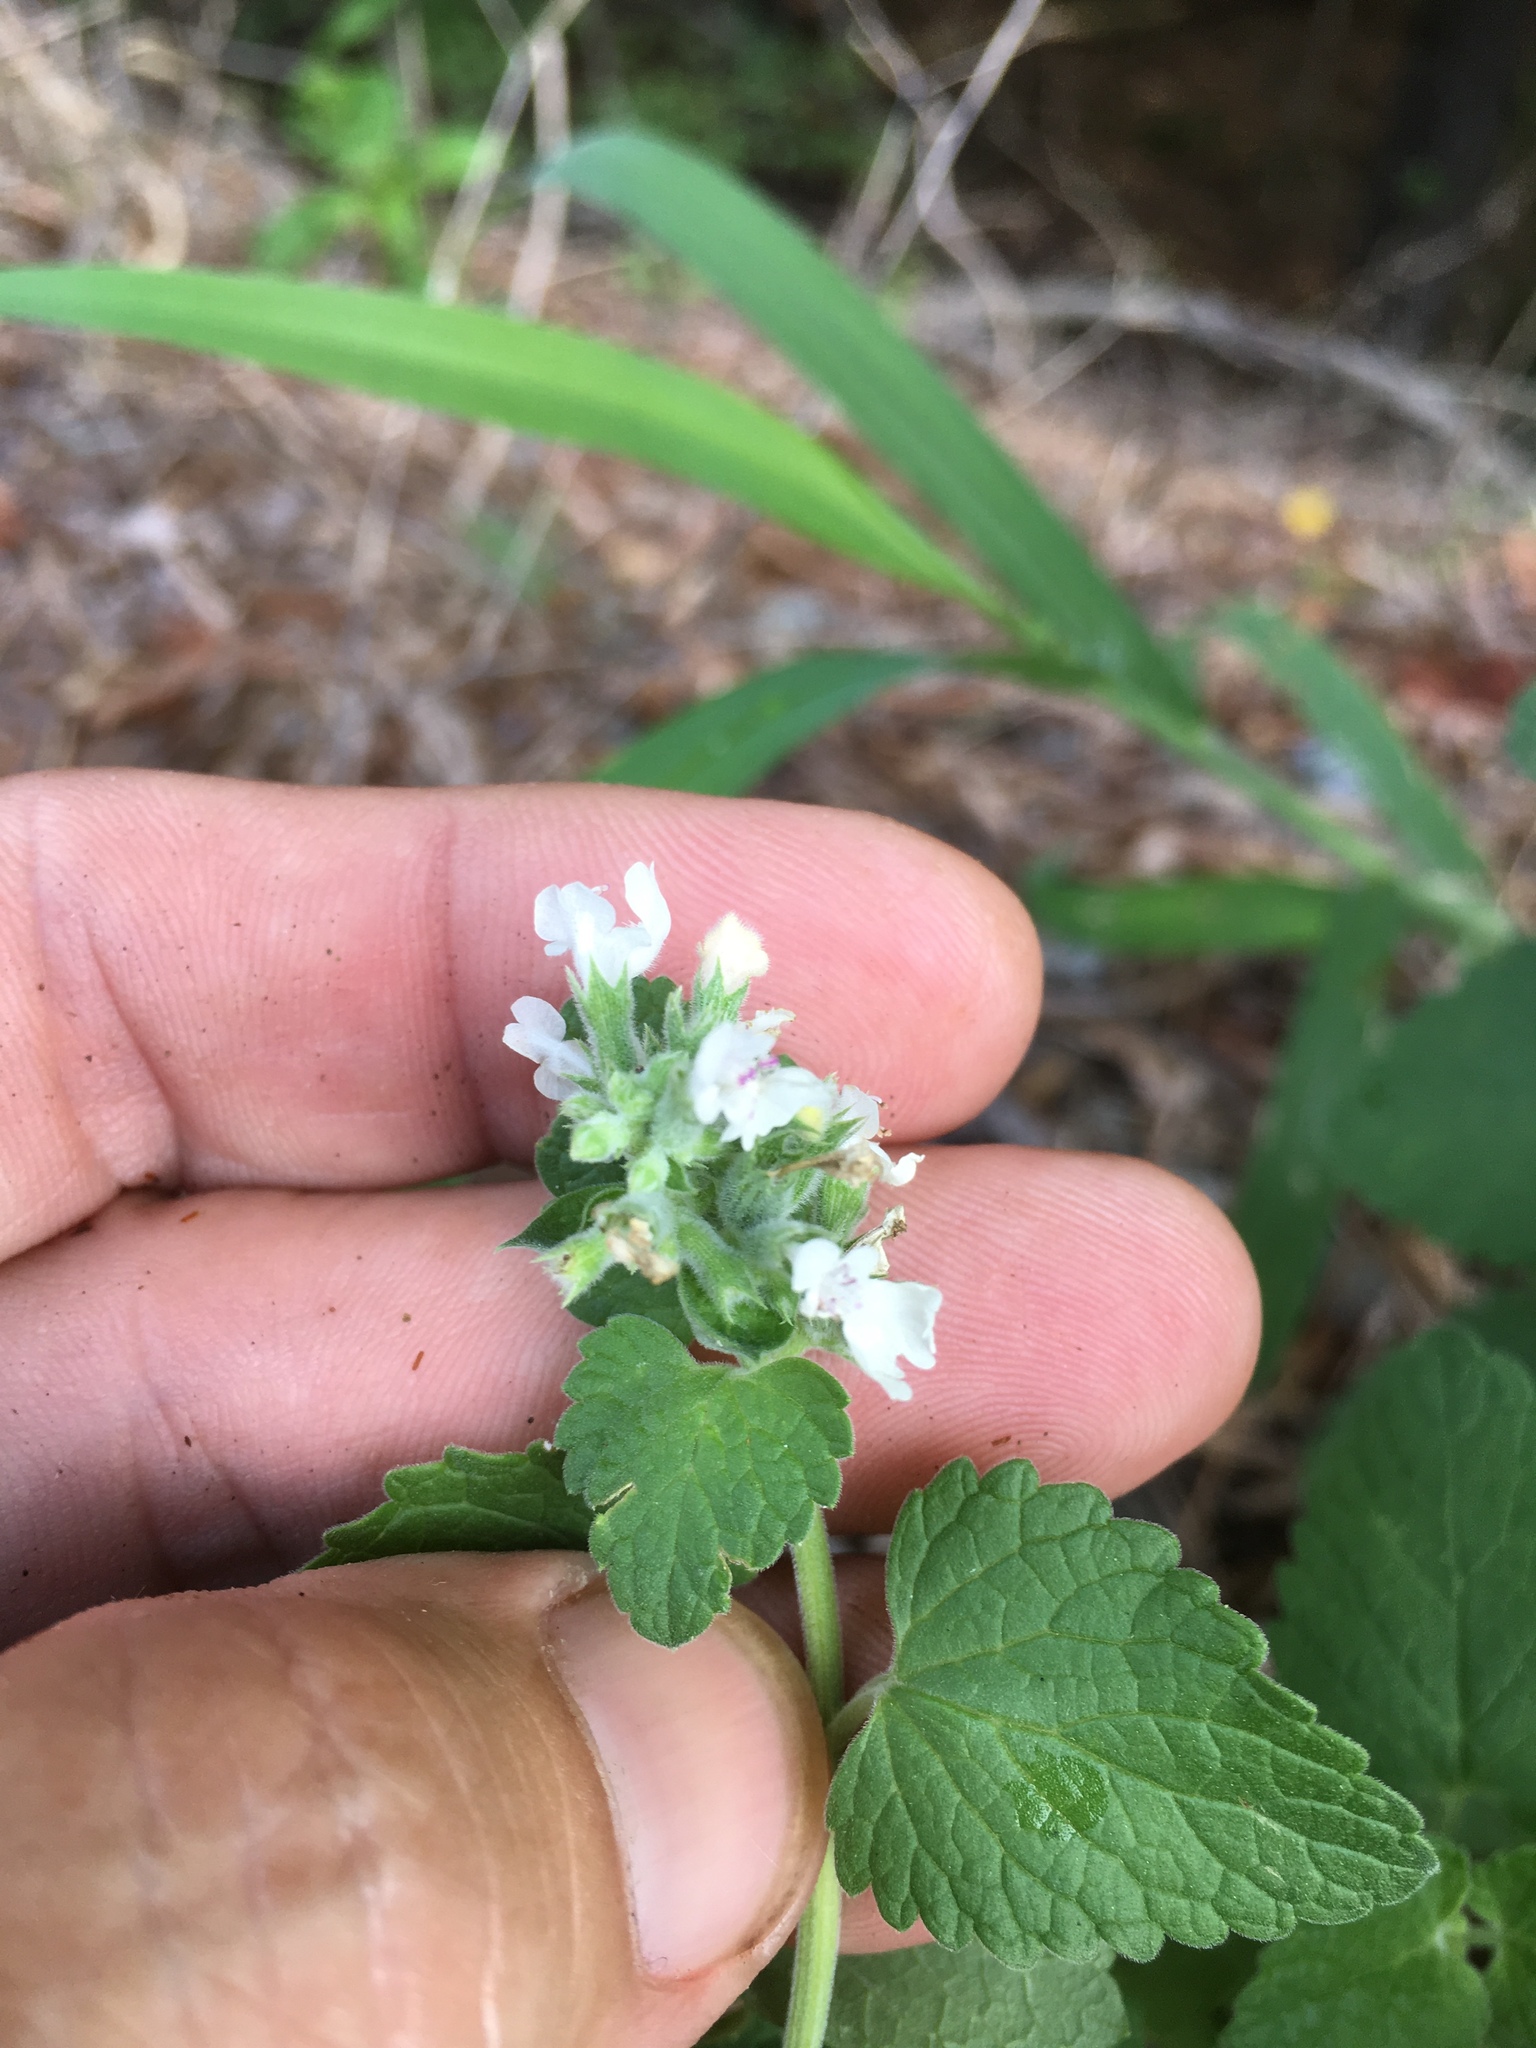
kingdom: Plantae
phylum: Tracheophyta
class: Magnoliopsida
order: Lamiales
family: Lamiaceae
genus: Nepeta
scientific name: Nepeta cataria
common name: Catnip
